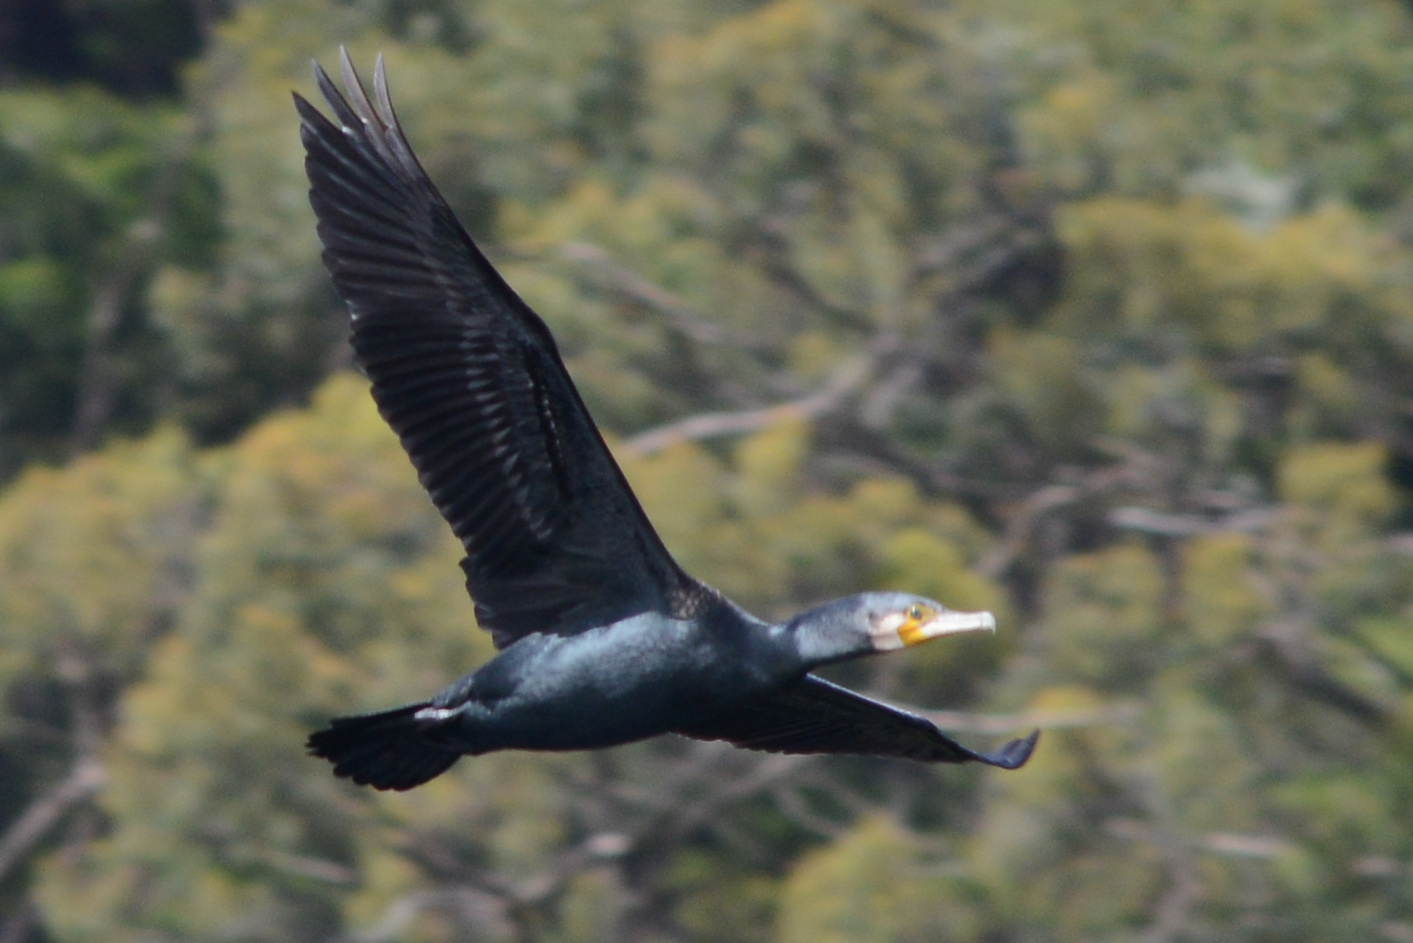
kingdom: Animalia
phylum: Chordata
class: Aves
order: Suliformes
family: Phalacrocoracidae
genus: Phalacrocorax
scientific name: Phalacrocorax carbo
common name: Great cormorant
